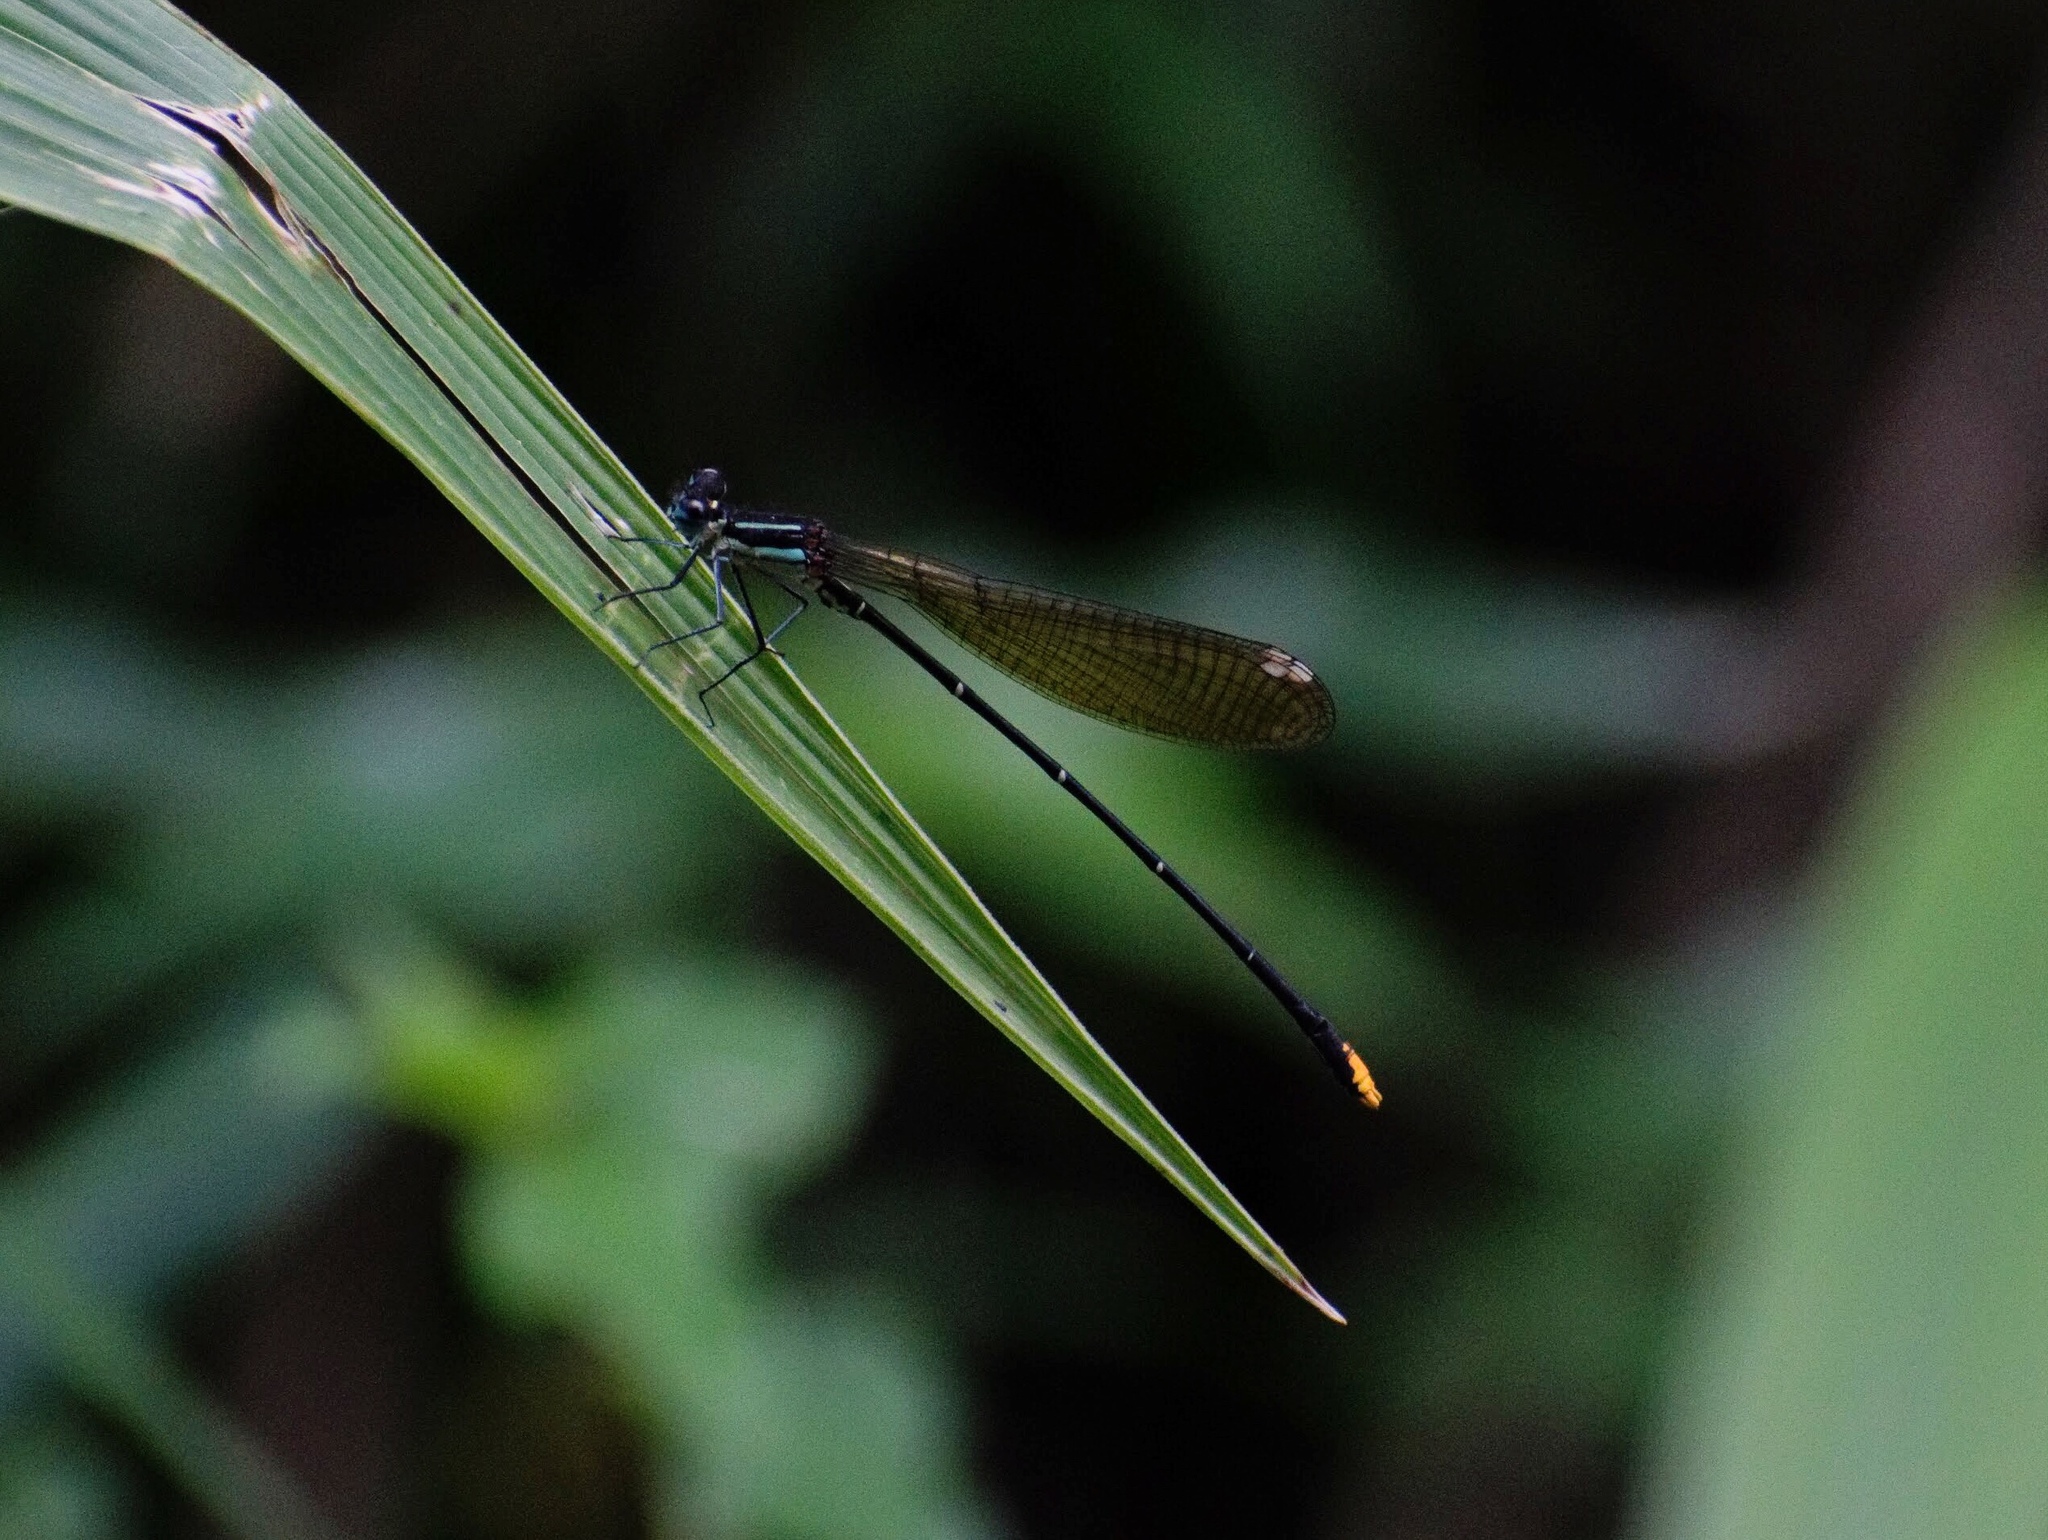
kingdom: Animalia
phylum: Arthropoda
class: Insecta
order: Odonata
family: Platycnemididae
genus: Allocnemis
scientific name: Allocnemis leucosticta
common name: Goldtail
